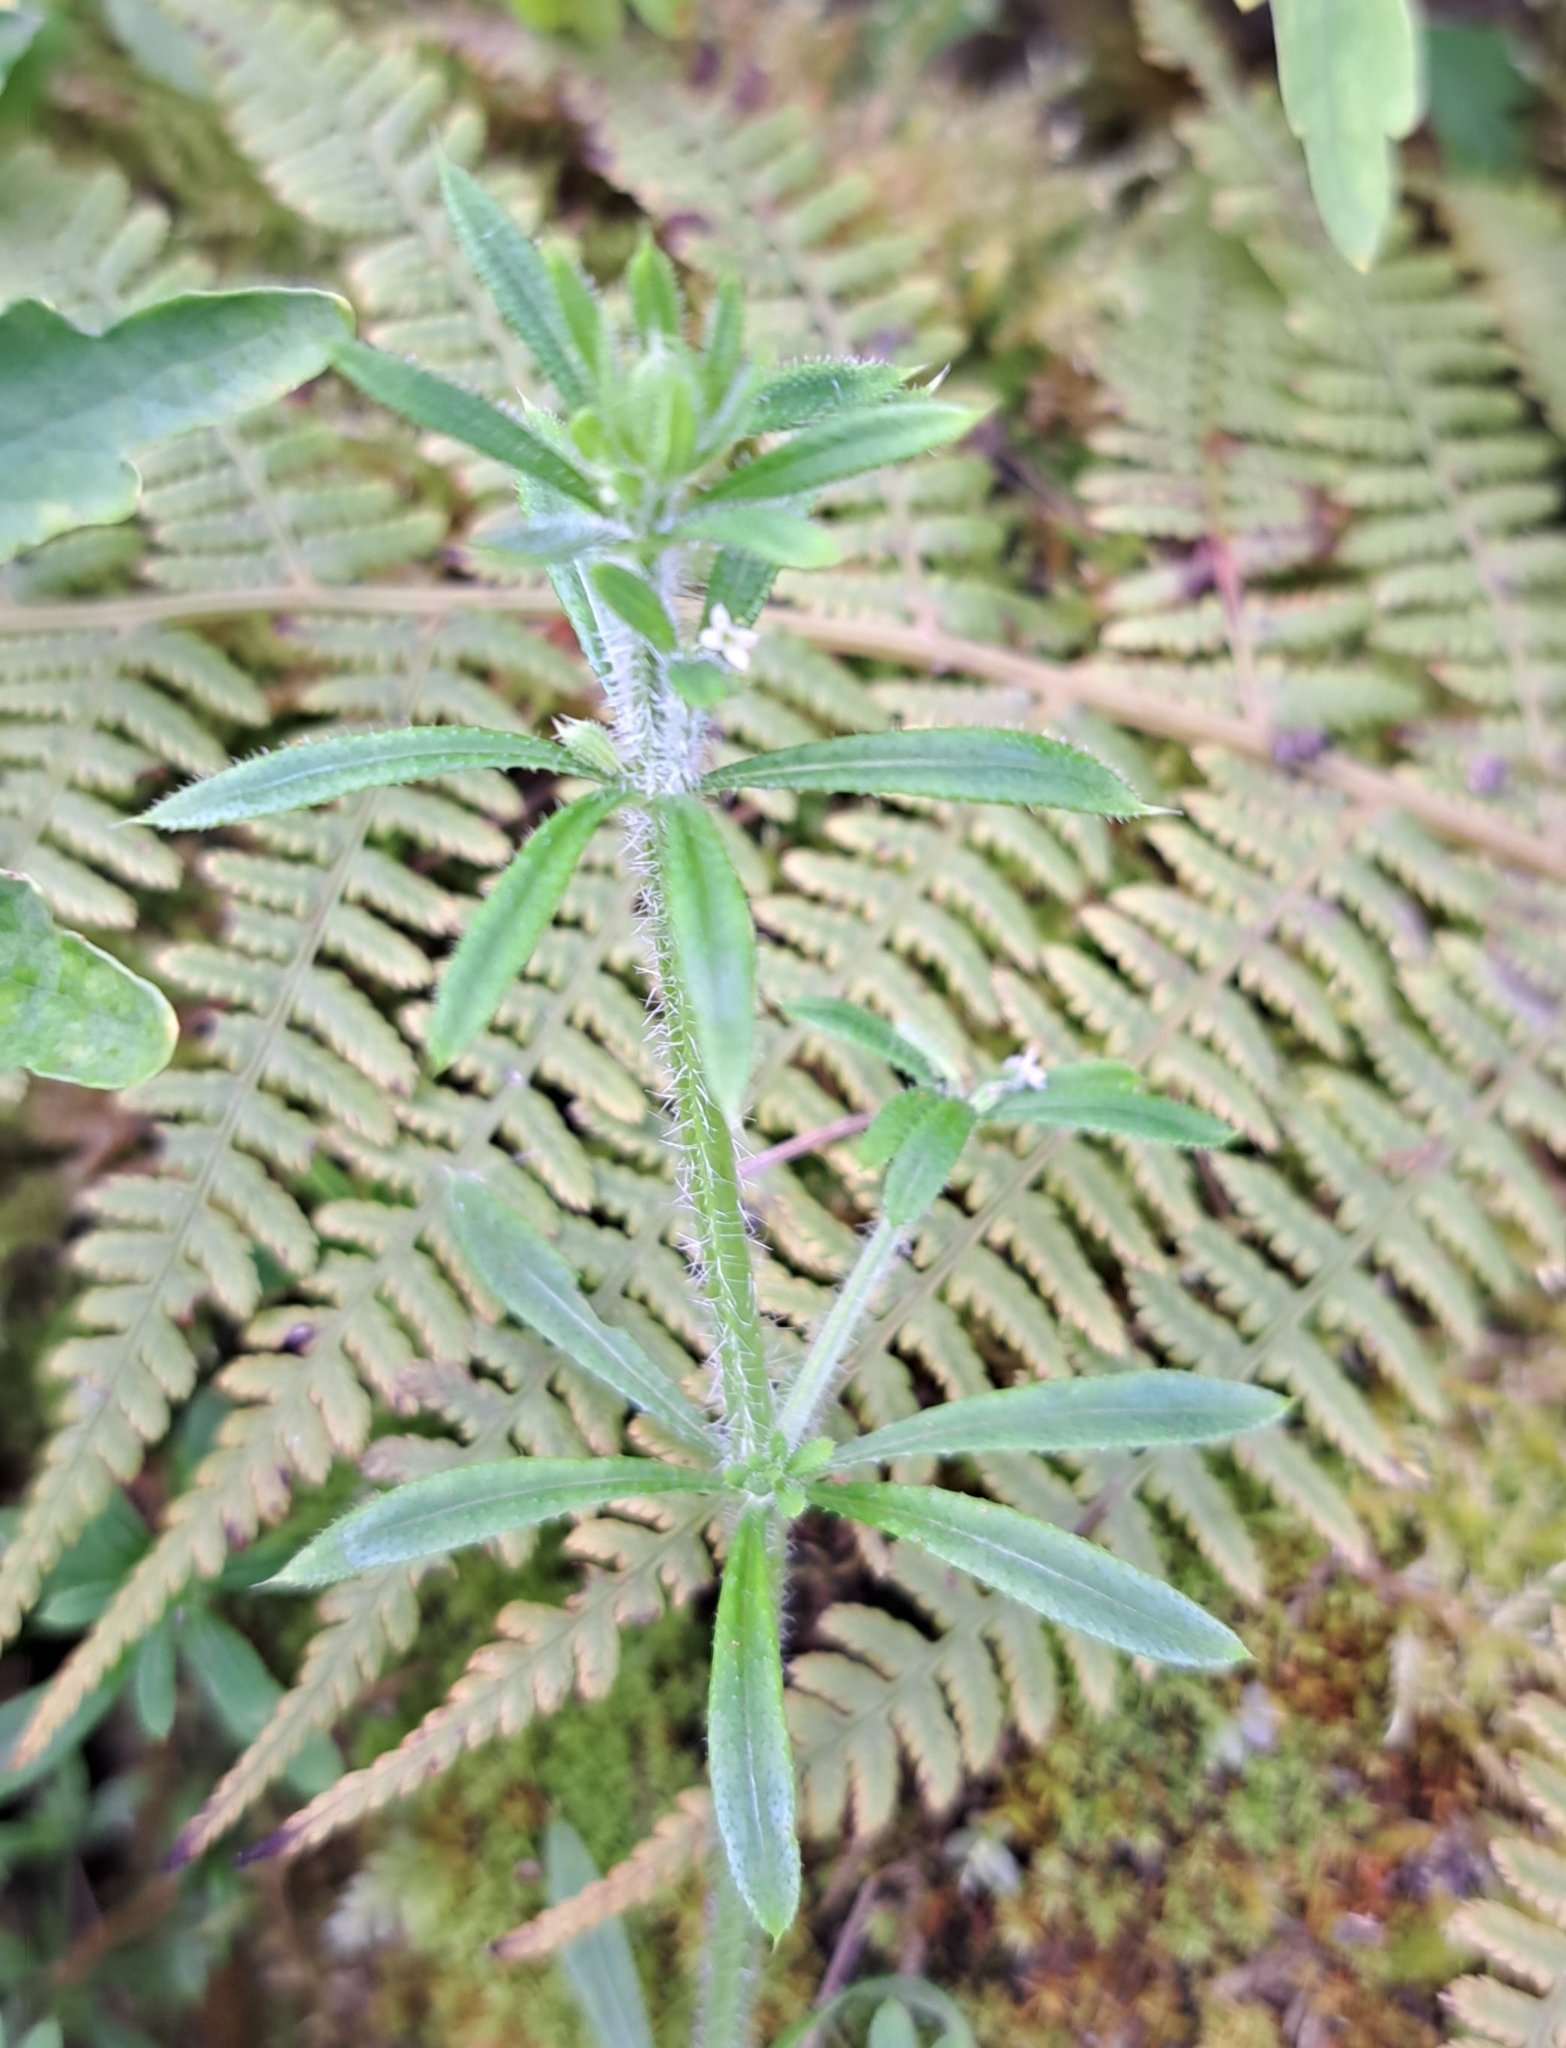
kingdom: Plantae
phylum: Tracheophyta
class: Magnoliopsida
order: Gentianales
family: Rubiaceae
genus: Galium
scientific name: Galium aparine
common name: Cleavers
